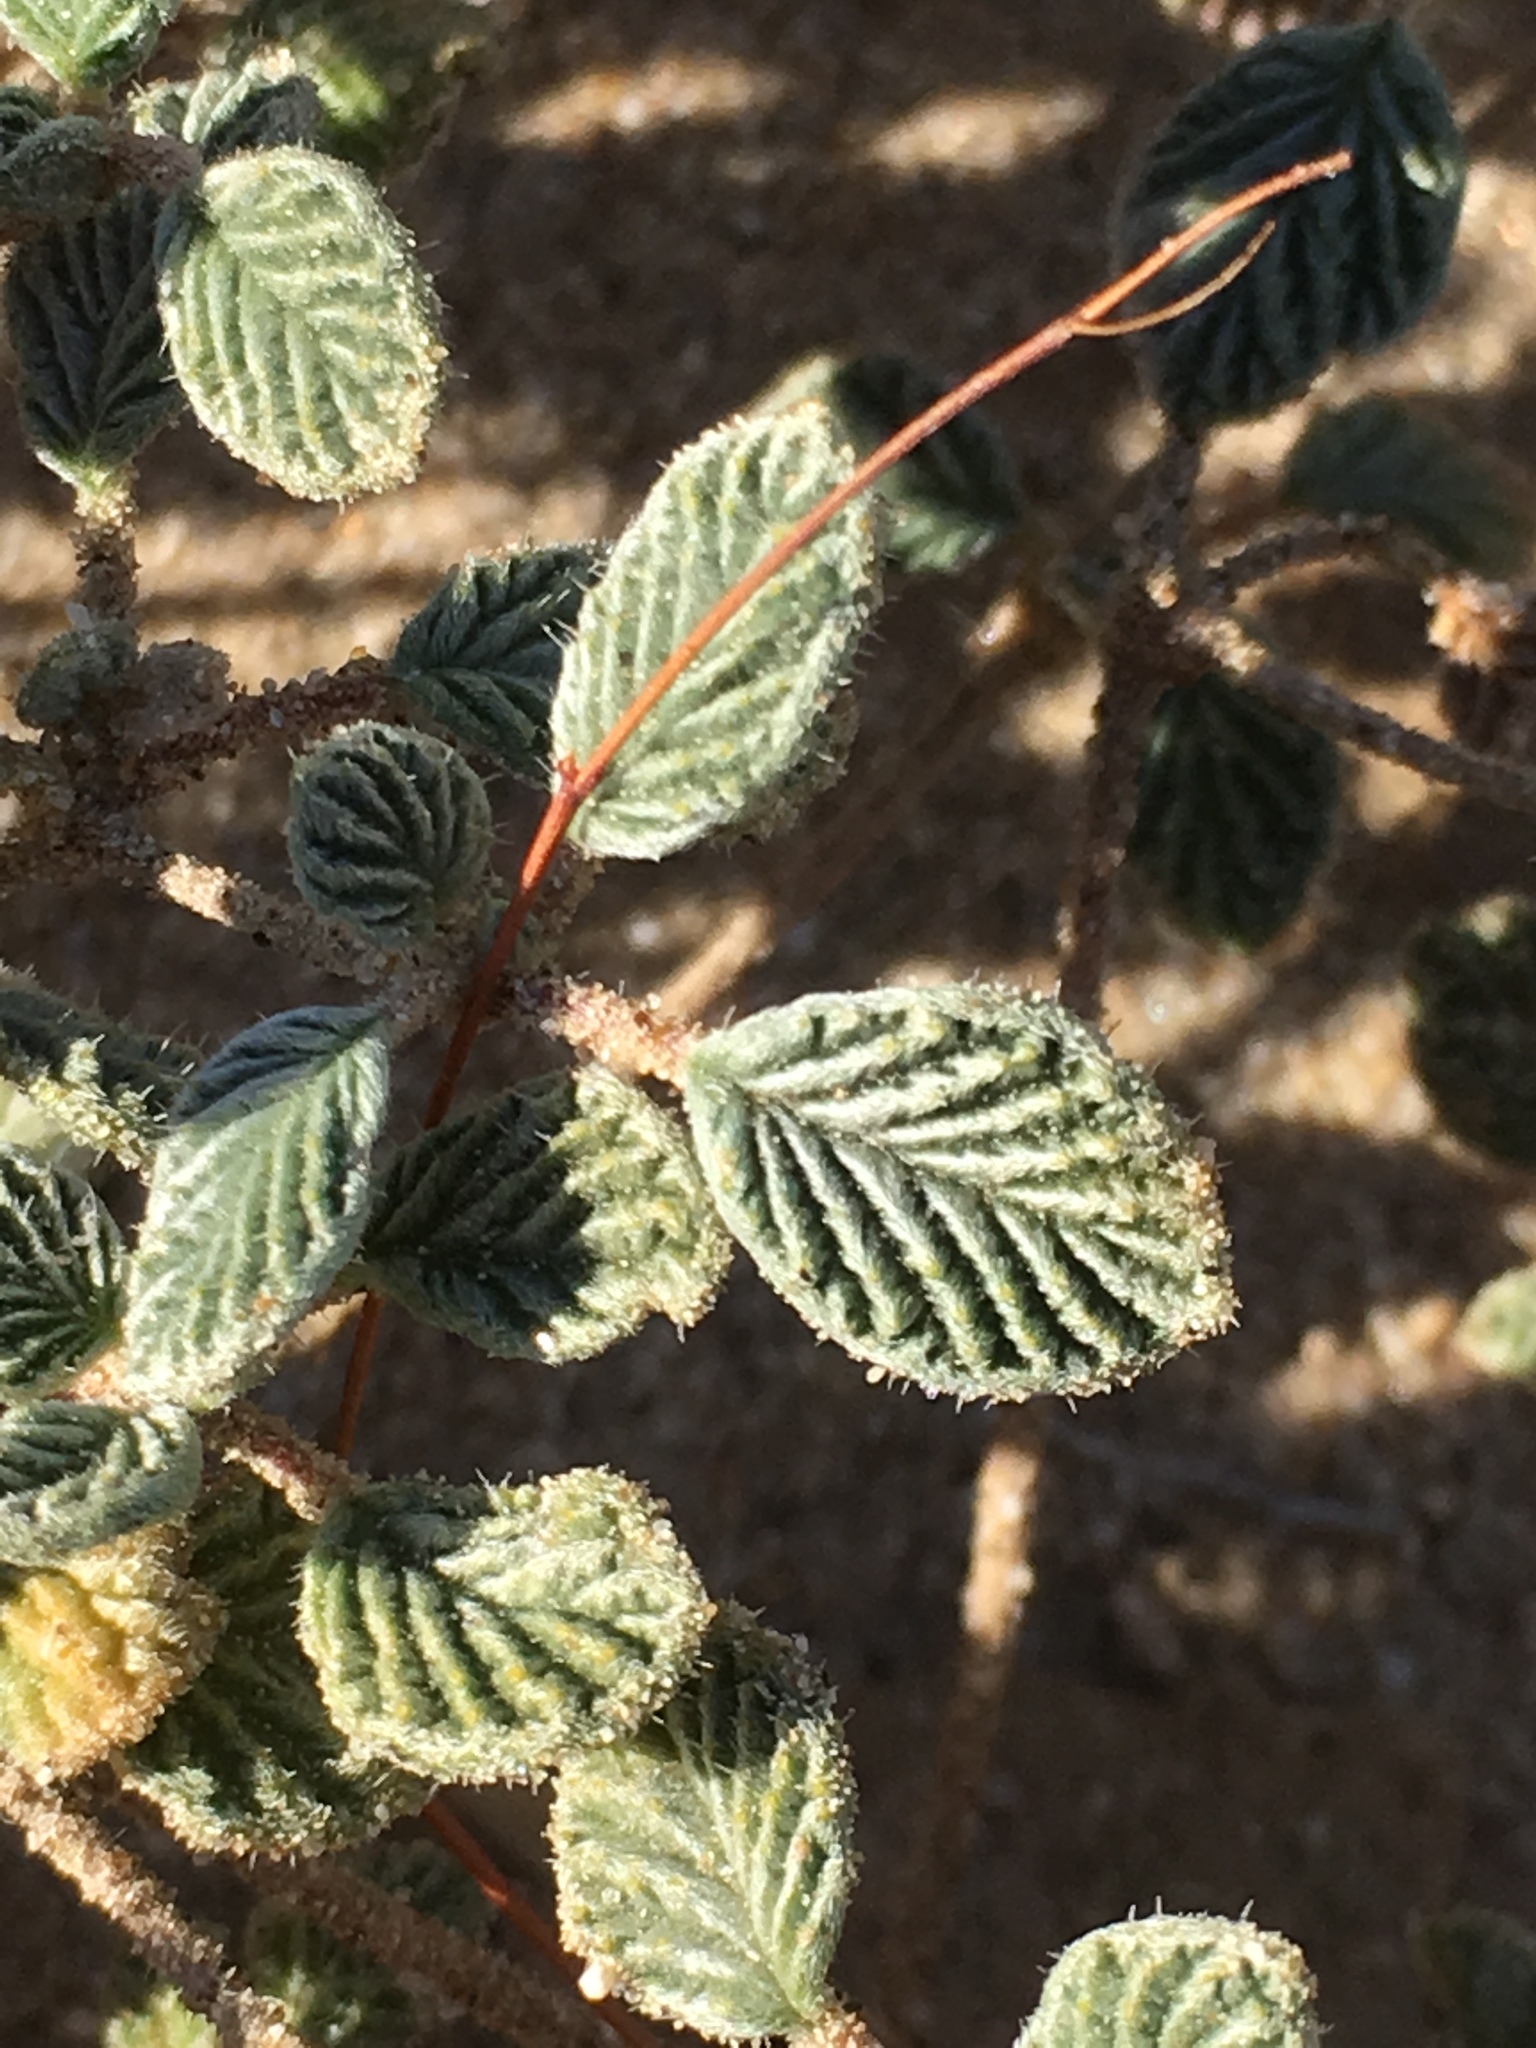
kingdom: Plantae
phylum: Tracheophyta
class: Magnoliopsida
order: Boraginales
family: Ehretiaceae
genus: Tiquilia
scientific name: Tiquilia plicata
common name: Fan-leaf tiquilia
